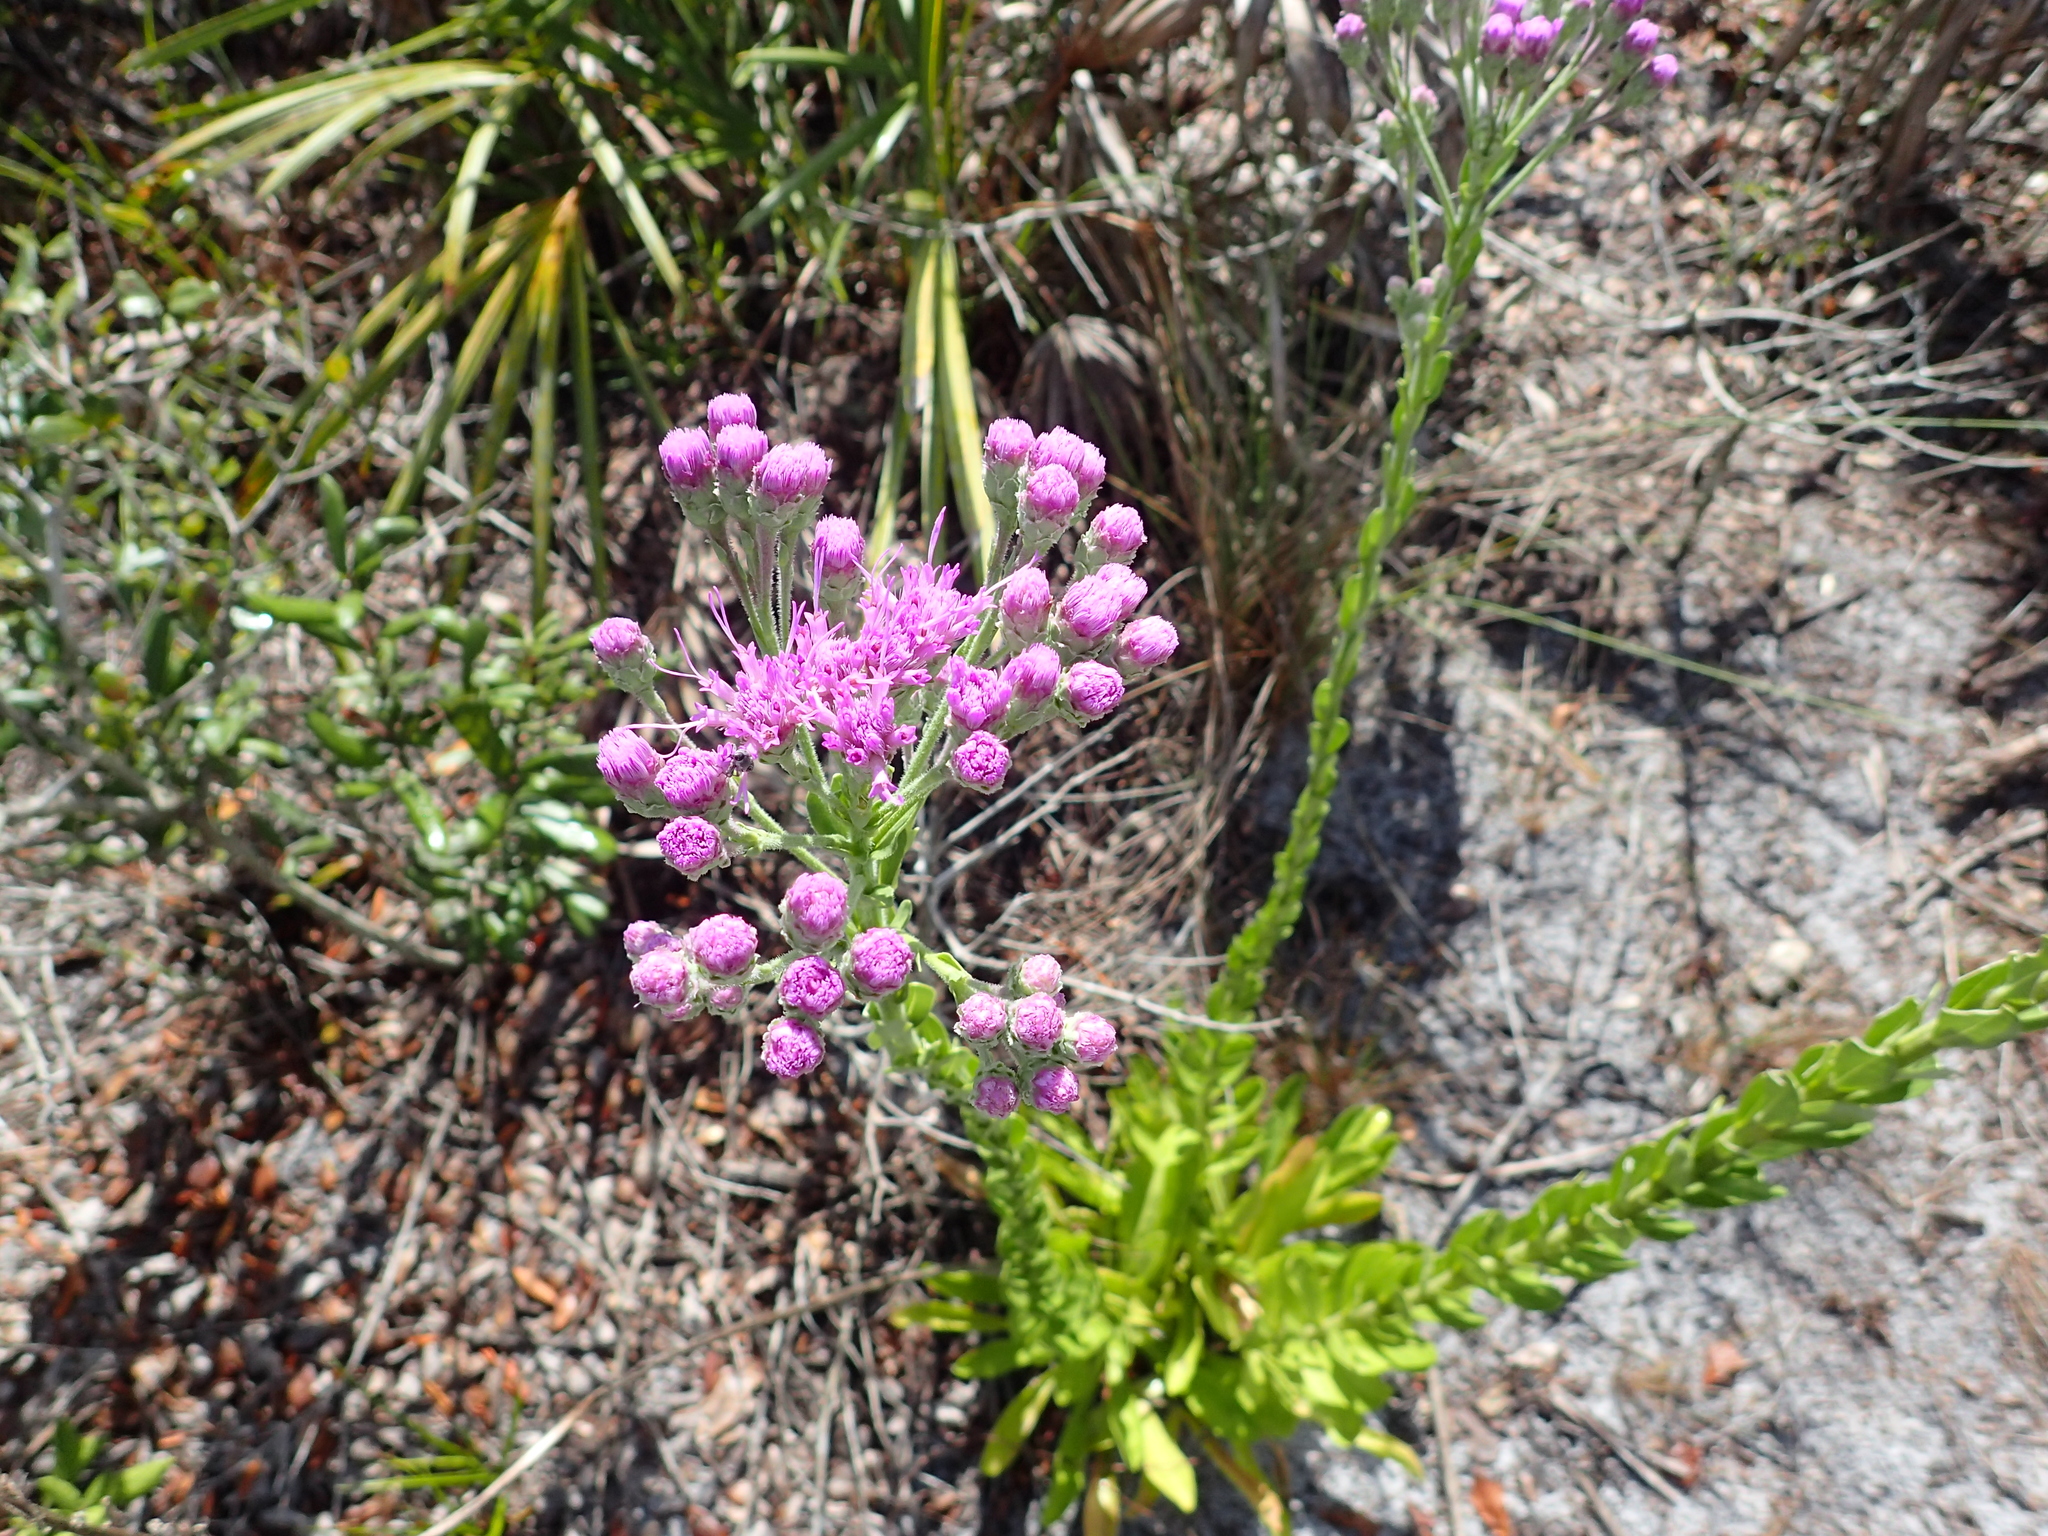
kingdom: Plantae
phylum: Tracheophyta
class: Magnoliopsida
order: Asterales
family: Asteraceae
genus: Carphephorus
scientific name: Carphephorus corymbosus
